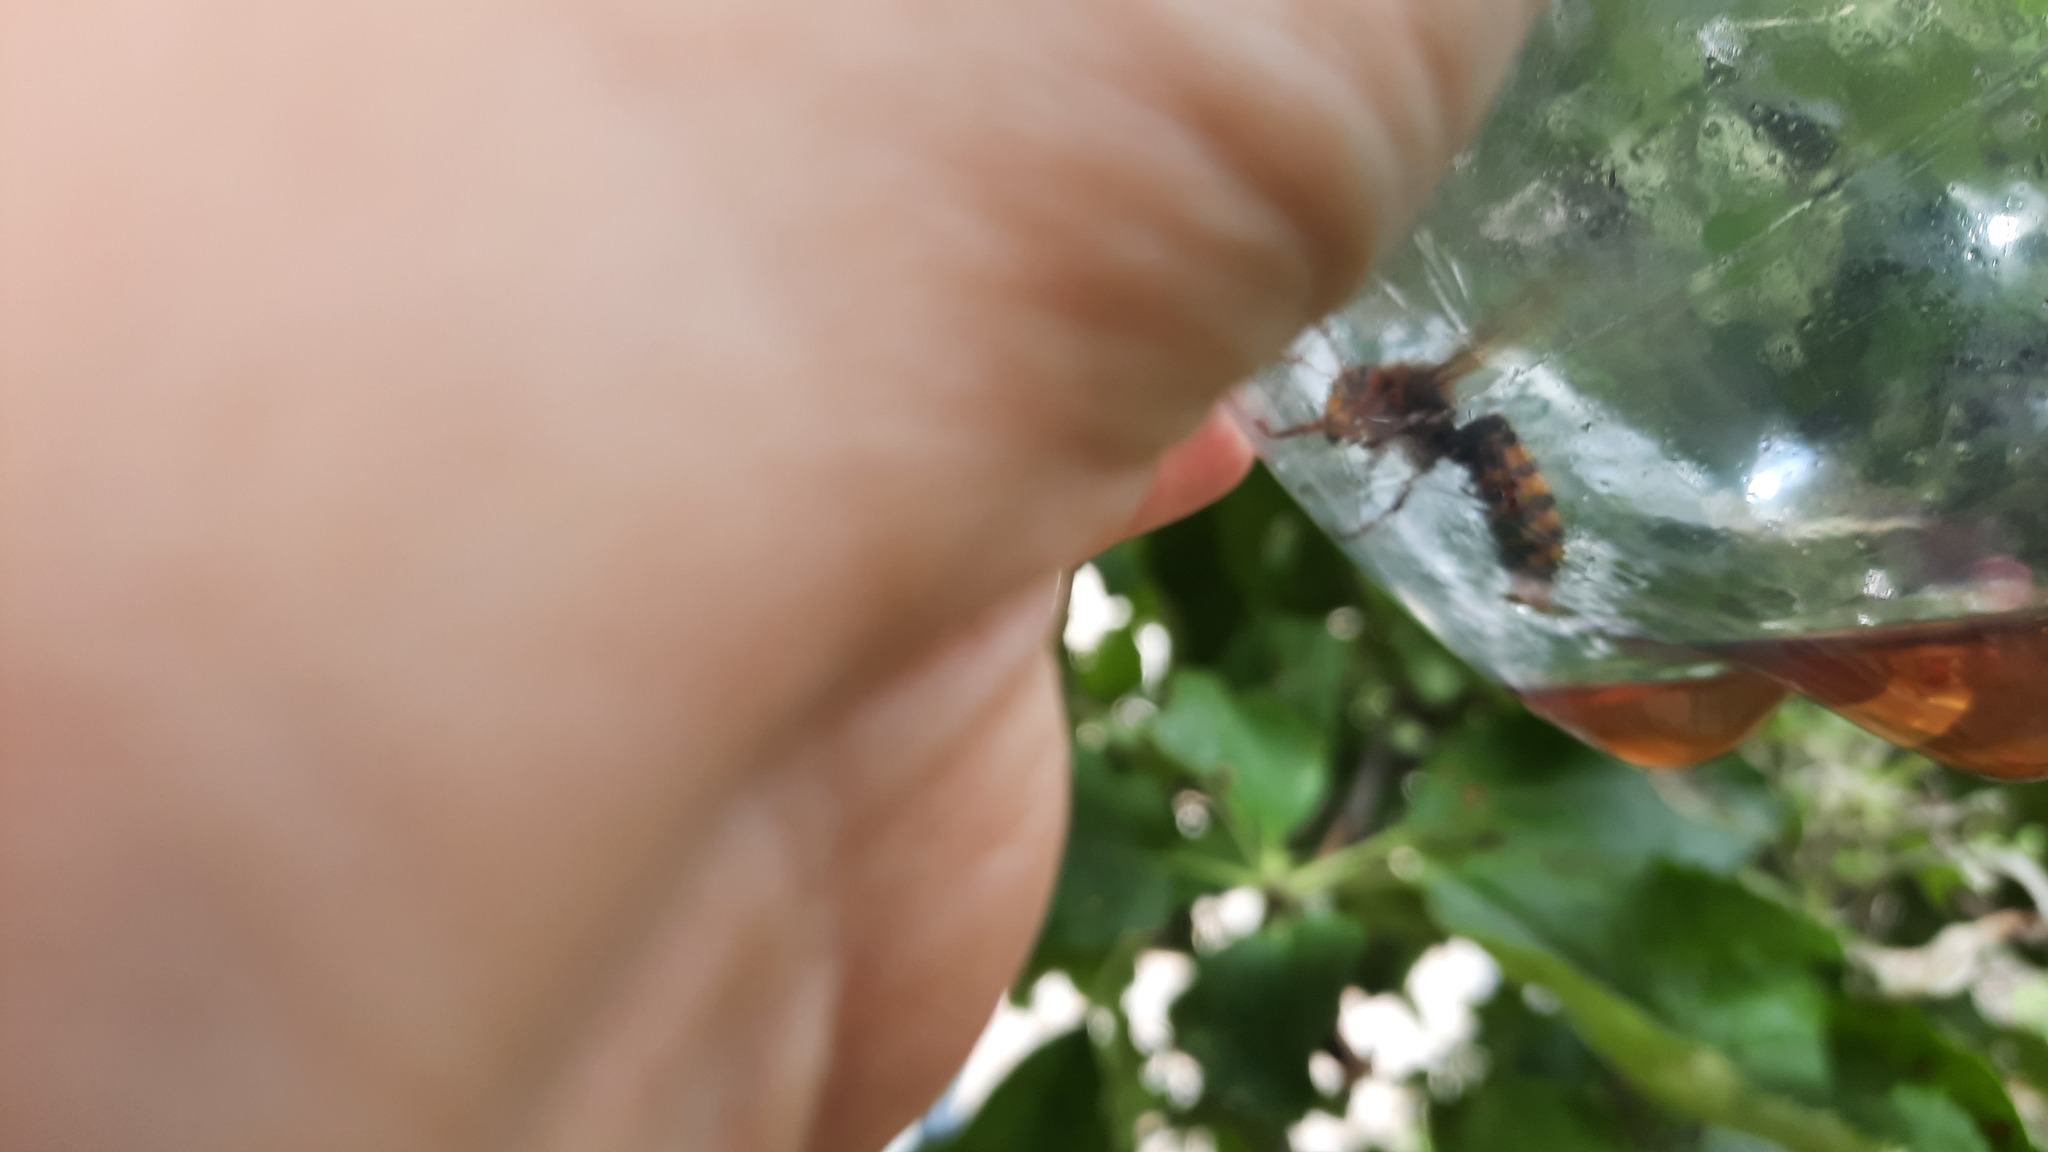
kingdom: Animalia
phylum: Arthropoda
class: Insecta
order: Hymenoptera
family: Vespidae
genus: Vespa
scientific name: Vespa crabro
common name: Hornet
